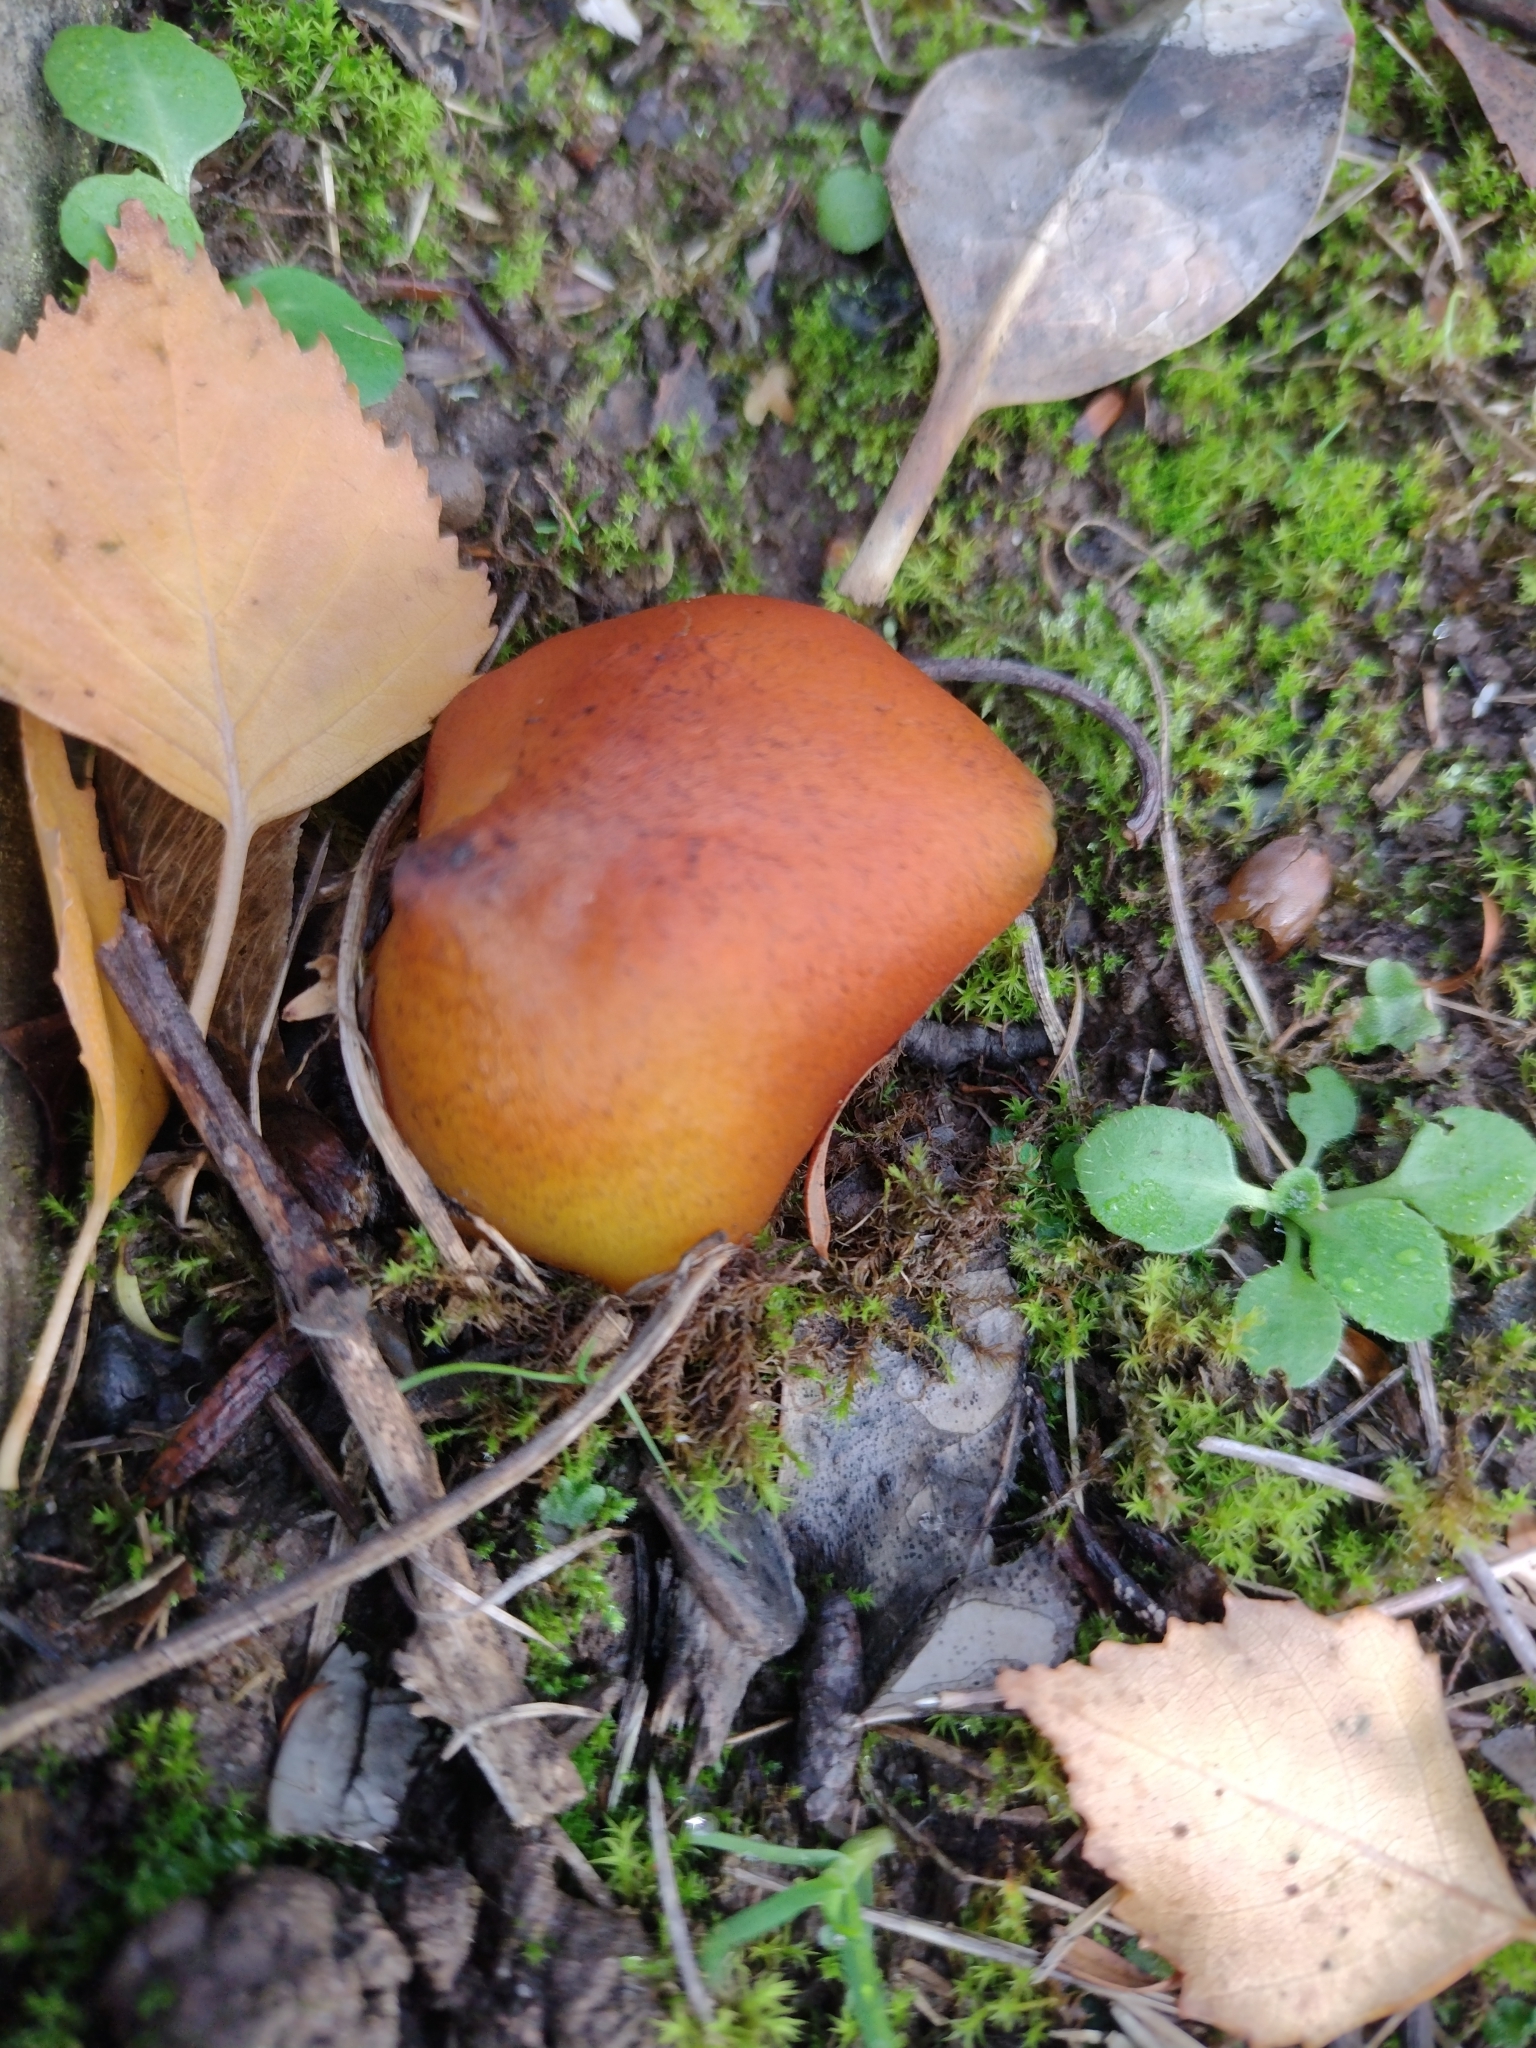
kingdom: Fungi
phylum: Basidiomycota
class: Agaricomycetes
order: Agaricales
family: Hygrophoraceae
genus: Hygrocybe
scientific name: Hygrocybe conica
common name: Blackening wax-cap
